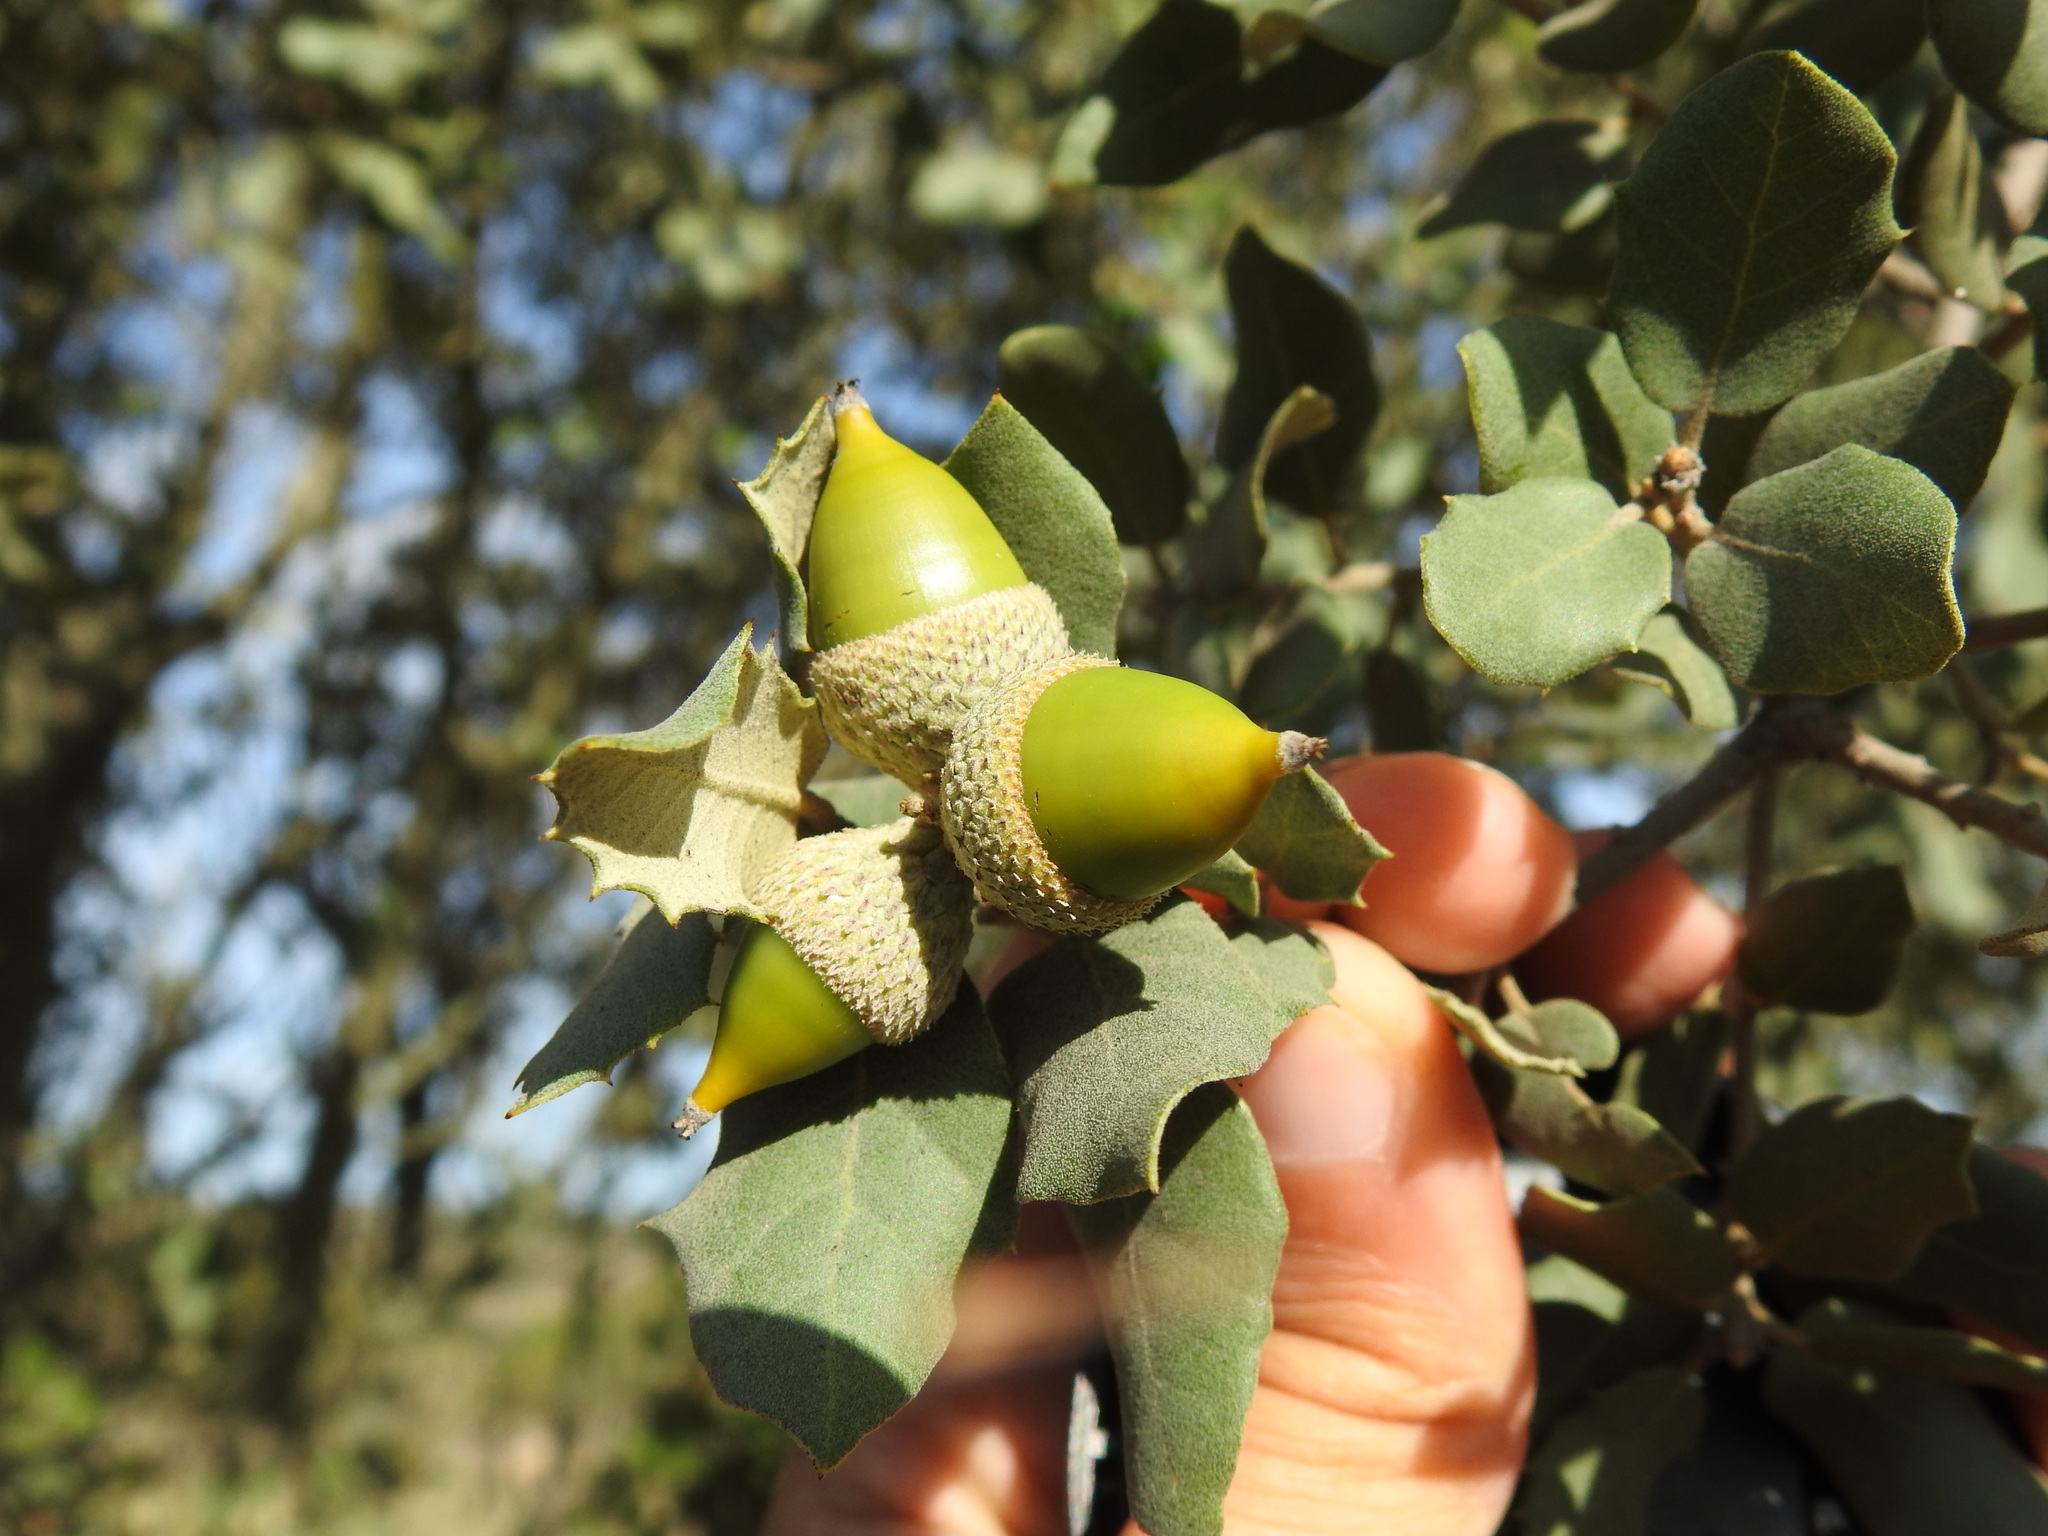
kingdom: Plantae
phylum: Tracheophyta
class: Magnoliopsida
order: Fagales
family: Fagaceae
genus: Quercus
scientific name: Quercus rotundifolia
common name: Holm oak
